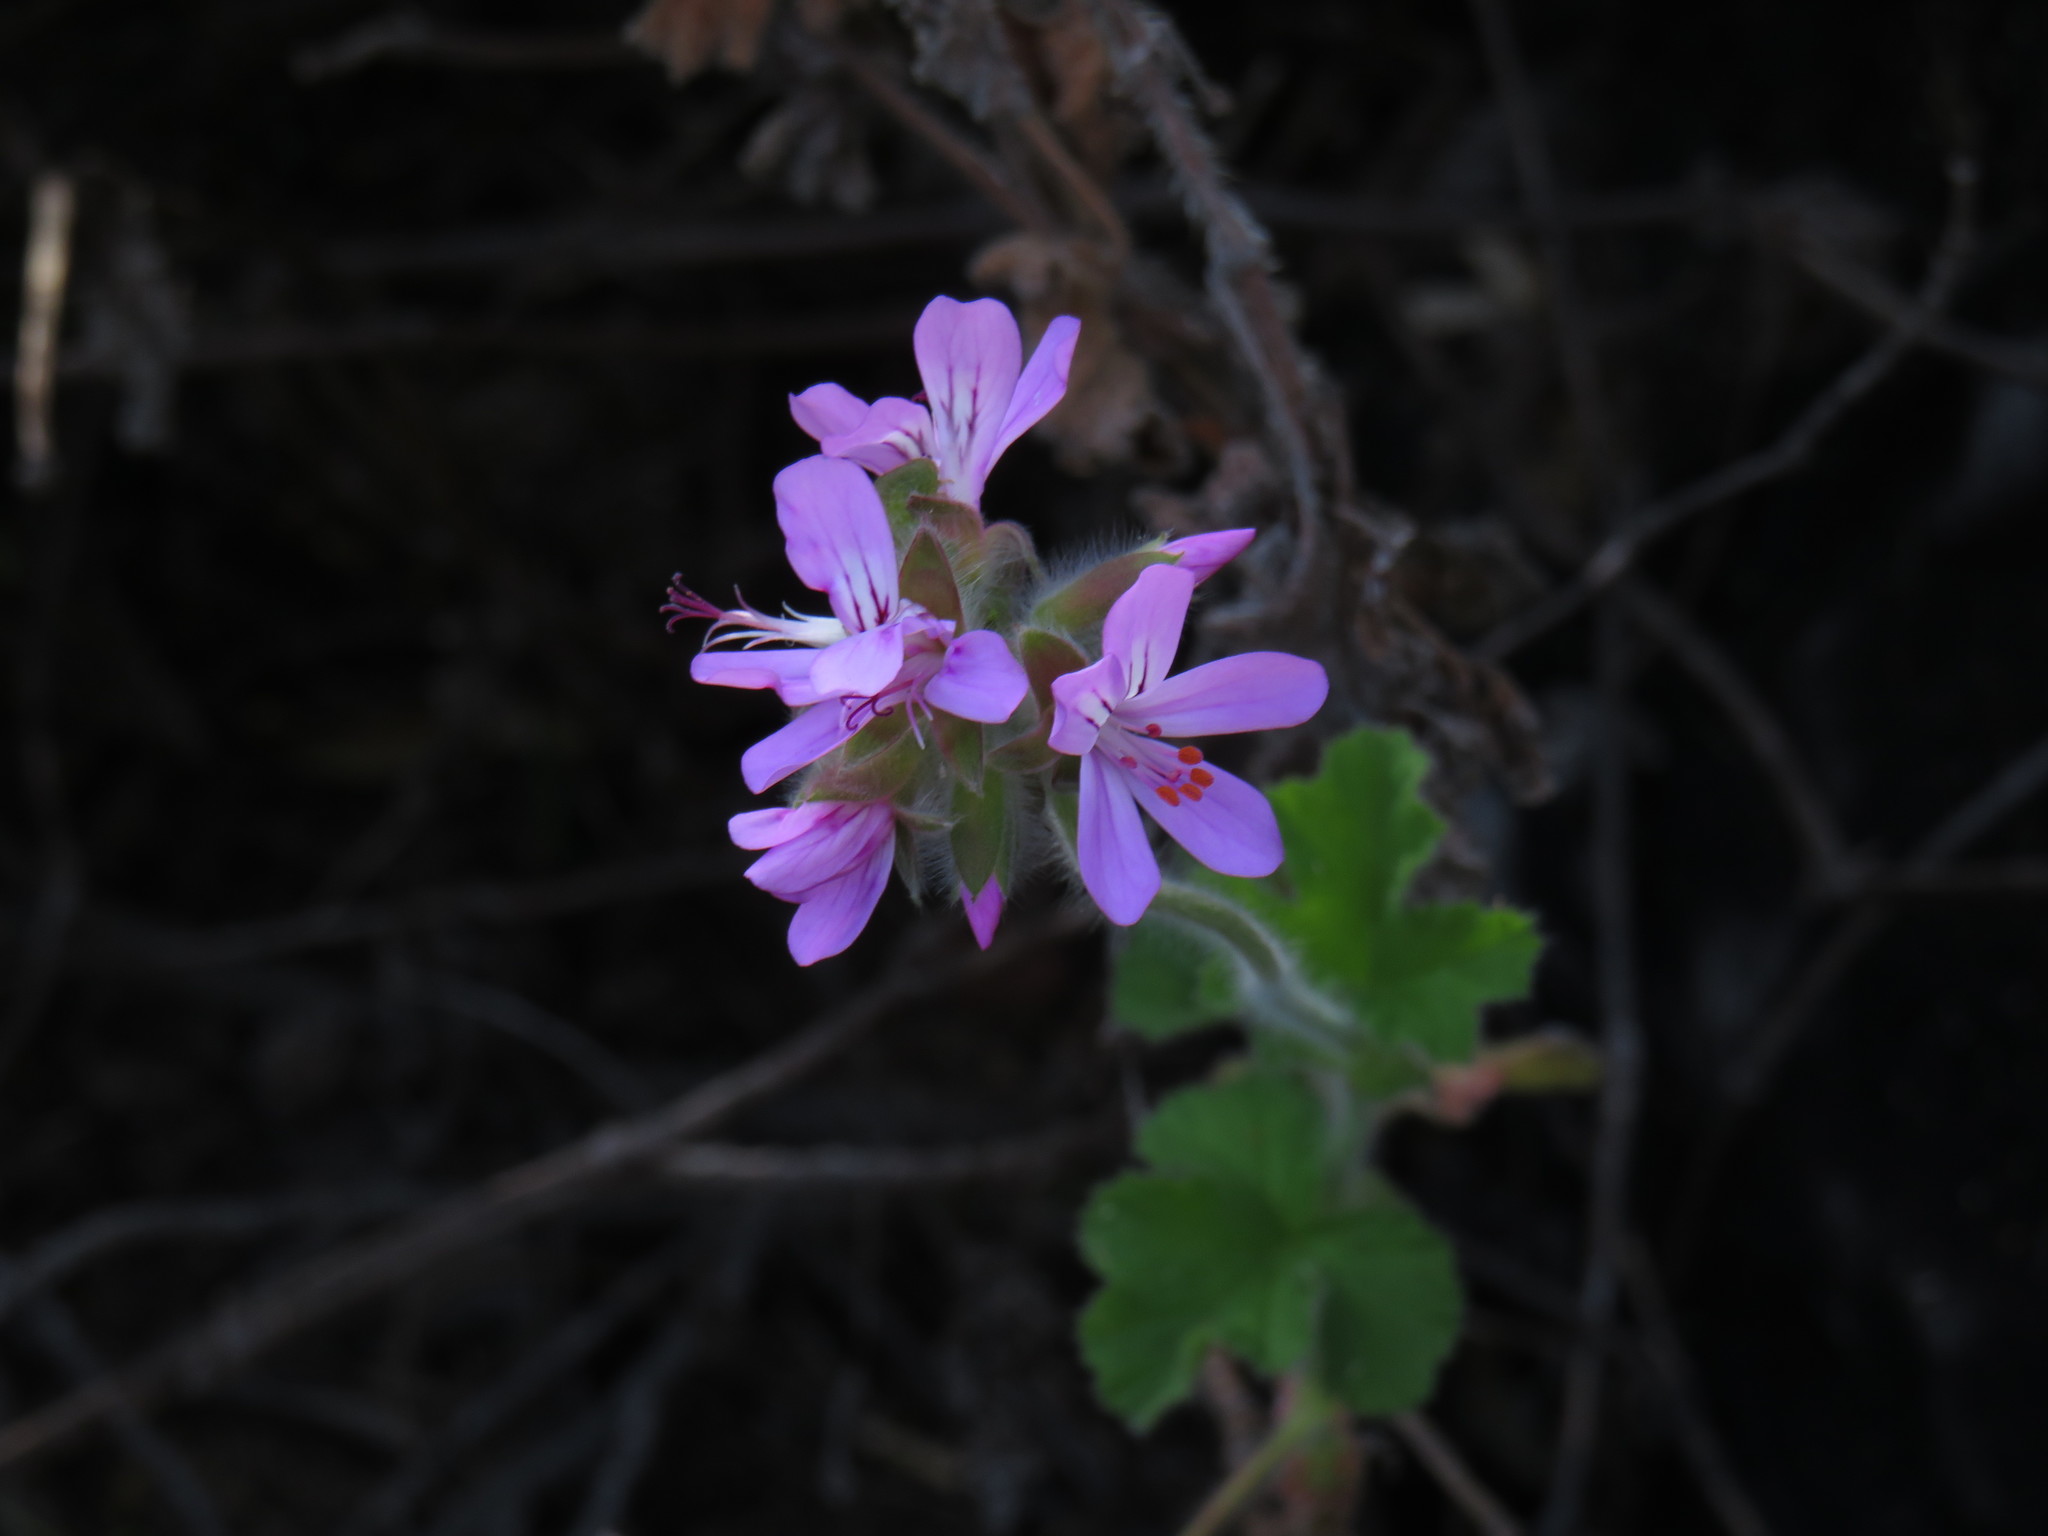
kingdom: Plantae
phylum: Tracheophyta
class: Magnoliopsida
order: Geraniales
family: Geraniaceae
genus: Pelargonium
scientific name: Pelargonium capitatum
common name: Rose scented geranium
